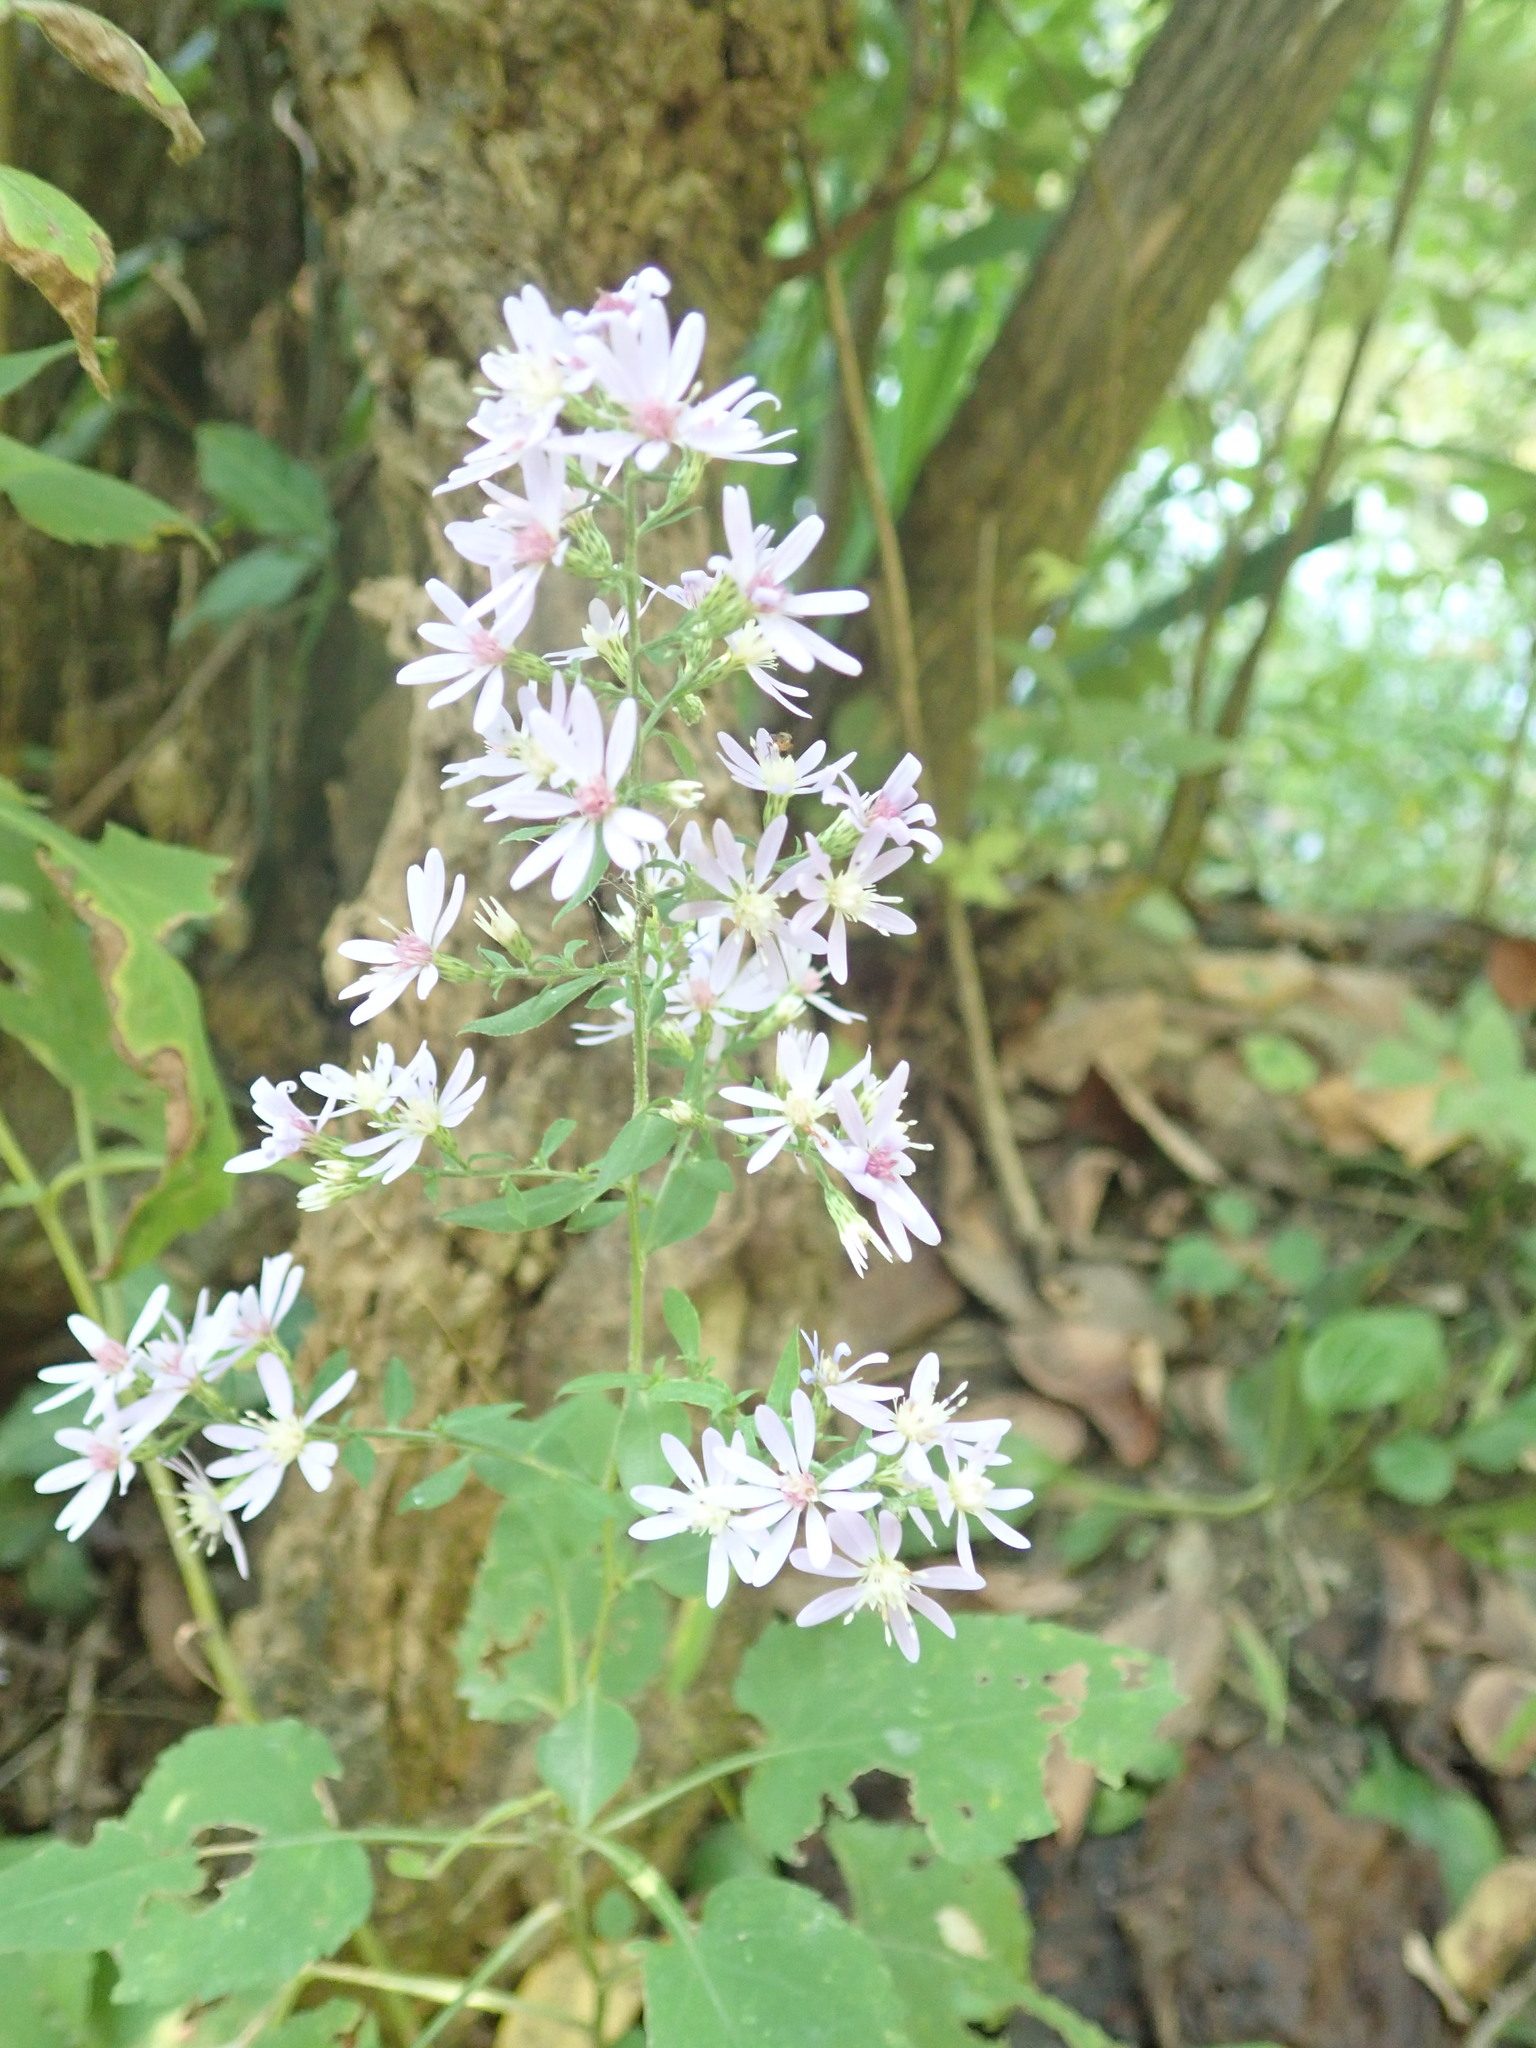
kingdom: Plantae
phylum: Tracheophyta
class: Magnoliopsida
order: Asterales
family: Asteraceae
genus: Symphyotrichum
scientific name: Symphyotrichum cordifolium
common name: Beeweed
